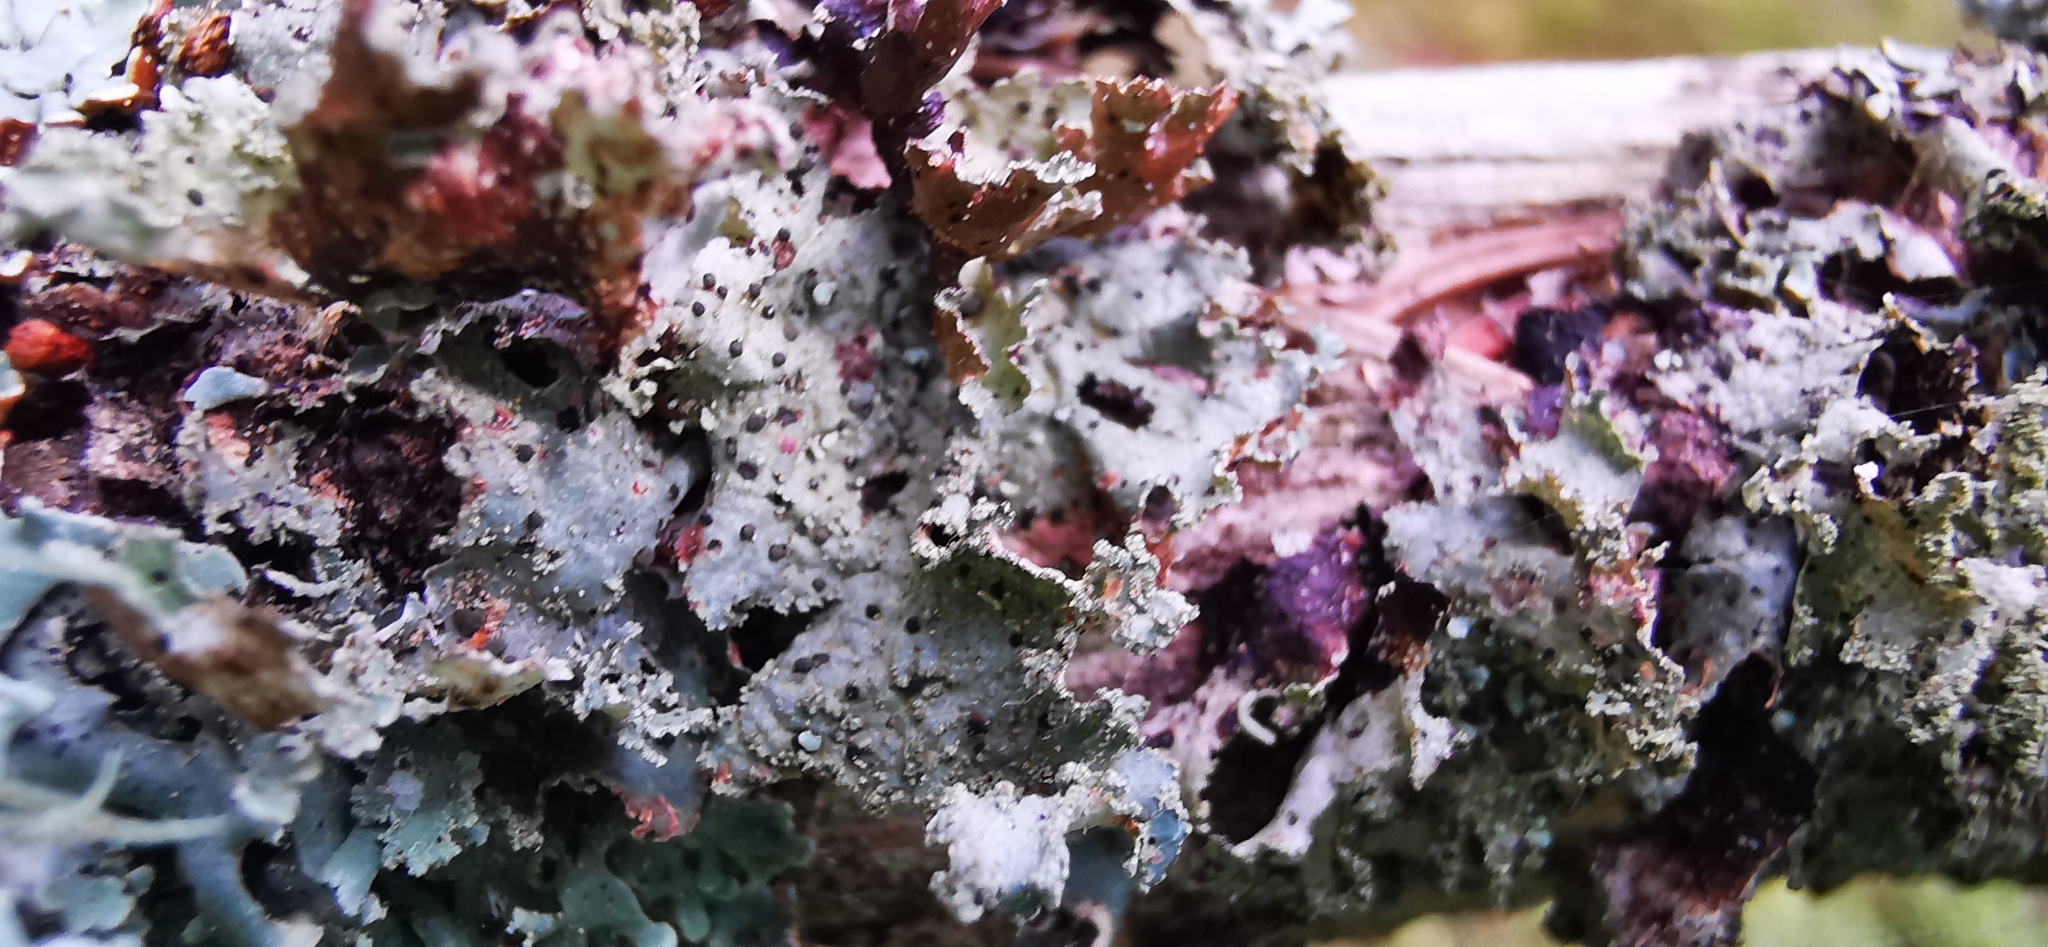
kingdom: Fungi
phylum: Ascomycota
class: Lecanoromycetes
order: Lecanorales
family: Parmeliaceae
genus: Platismatia
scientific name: Platismatia glauca
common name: Varied rag lichen
